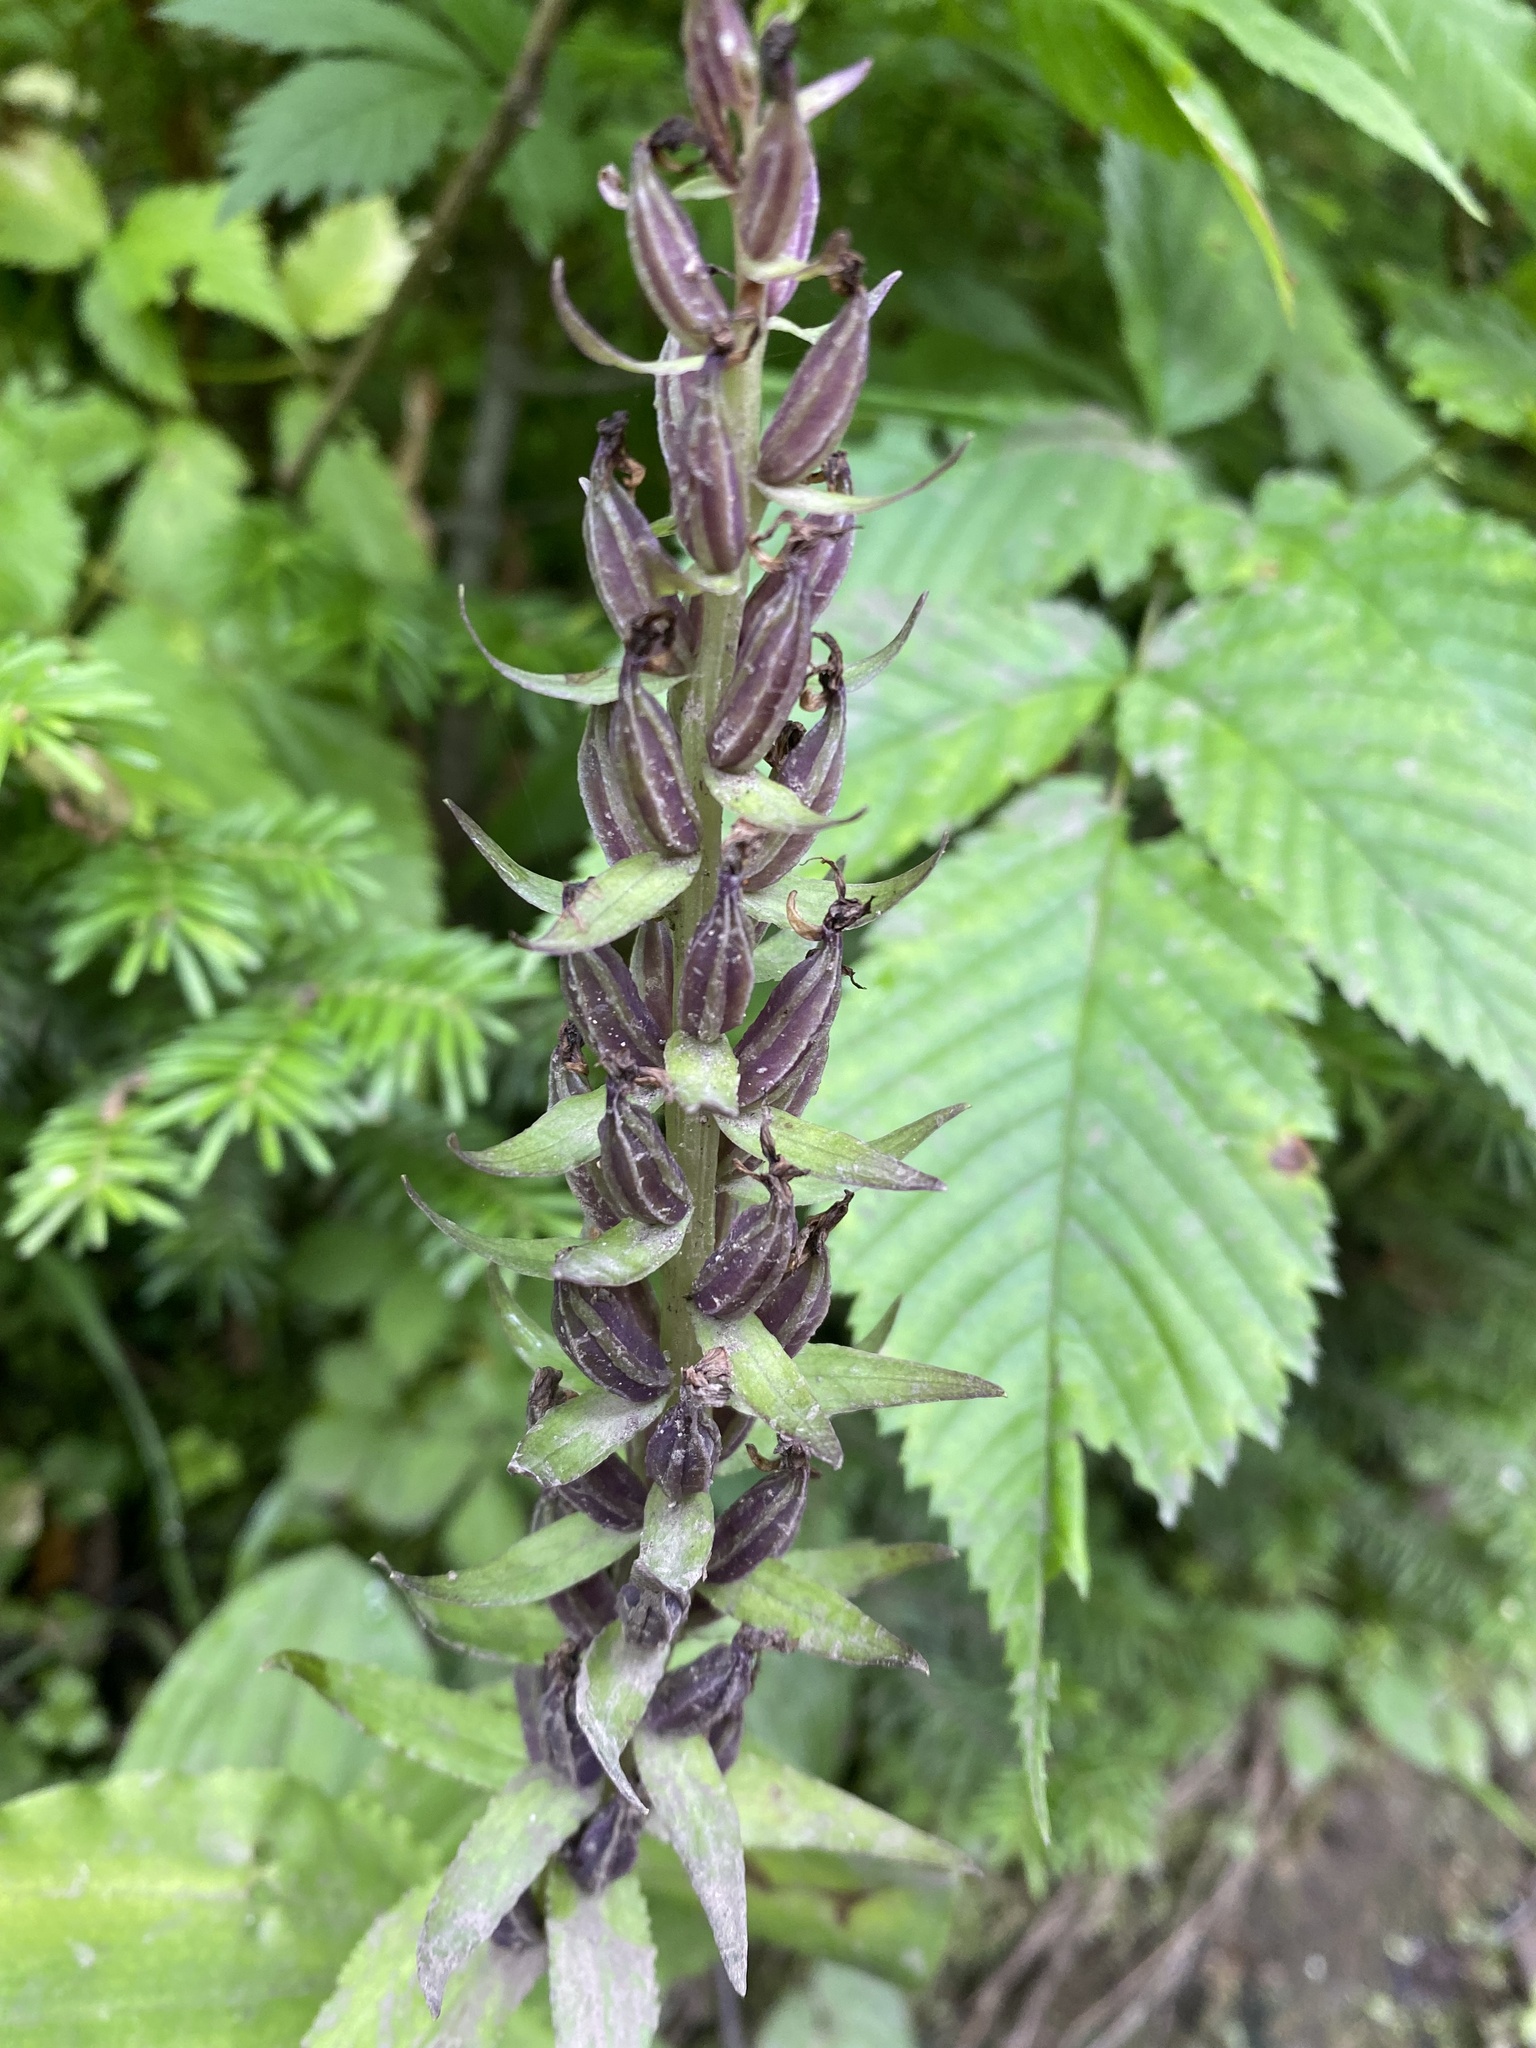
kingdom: Plantae
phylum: Tracheophyta
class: Liliopsida
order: Asparagales
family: Orchidaceae
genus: Galearis
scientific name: Galearis camtschatica
